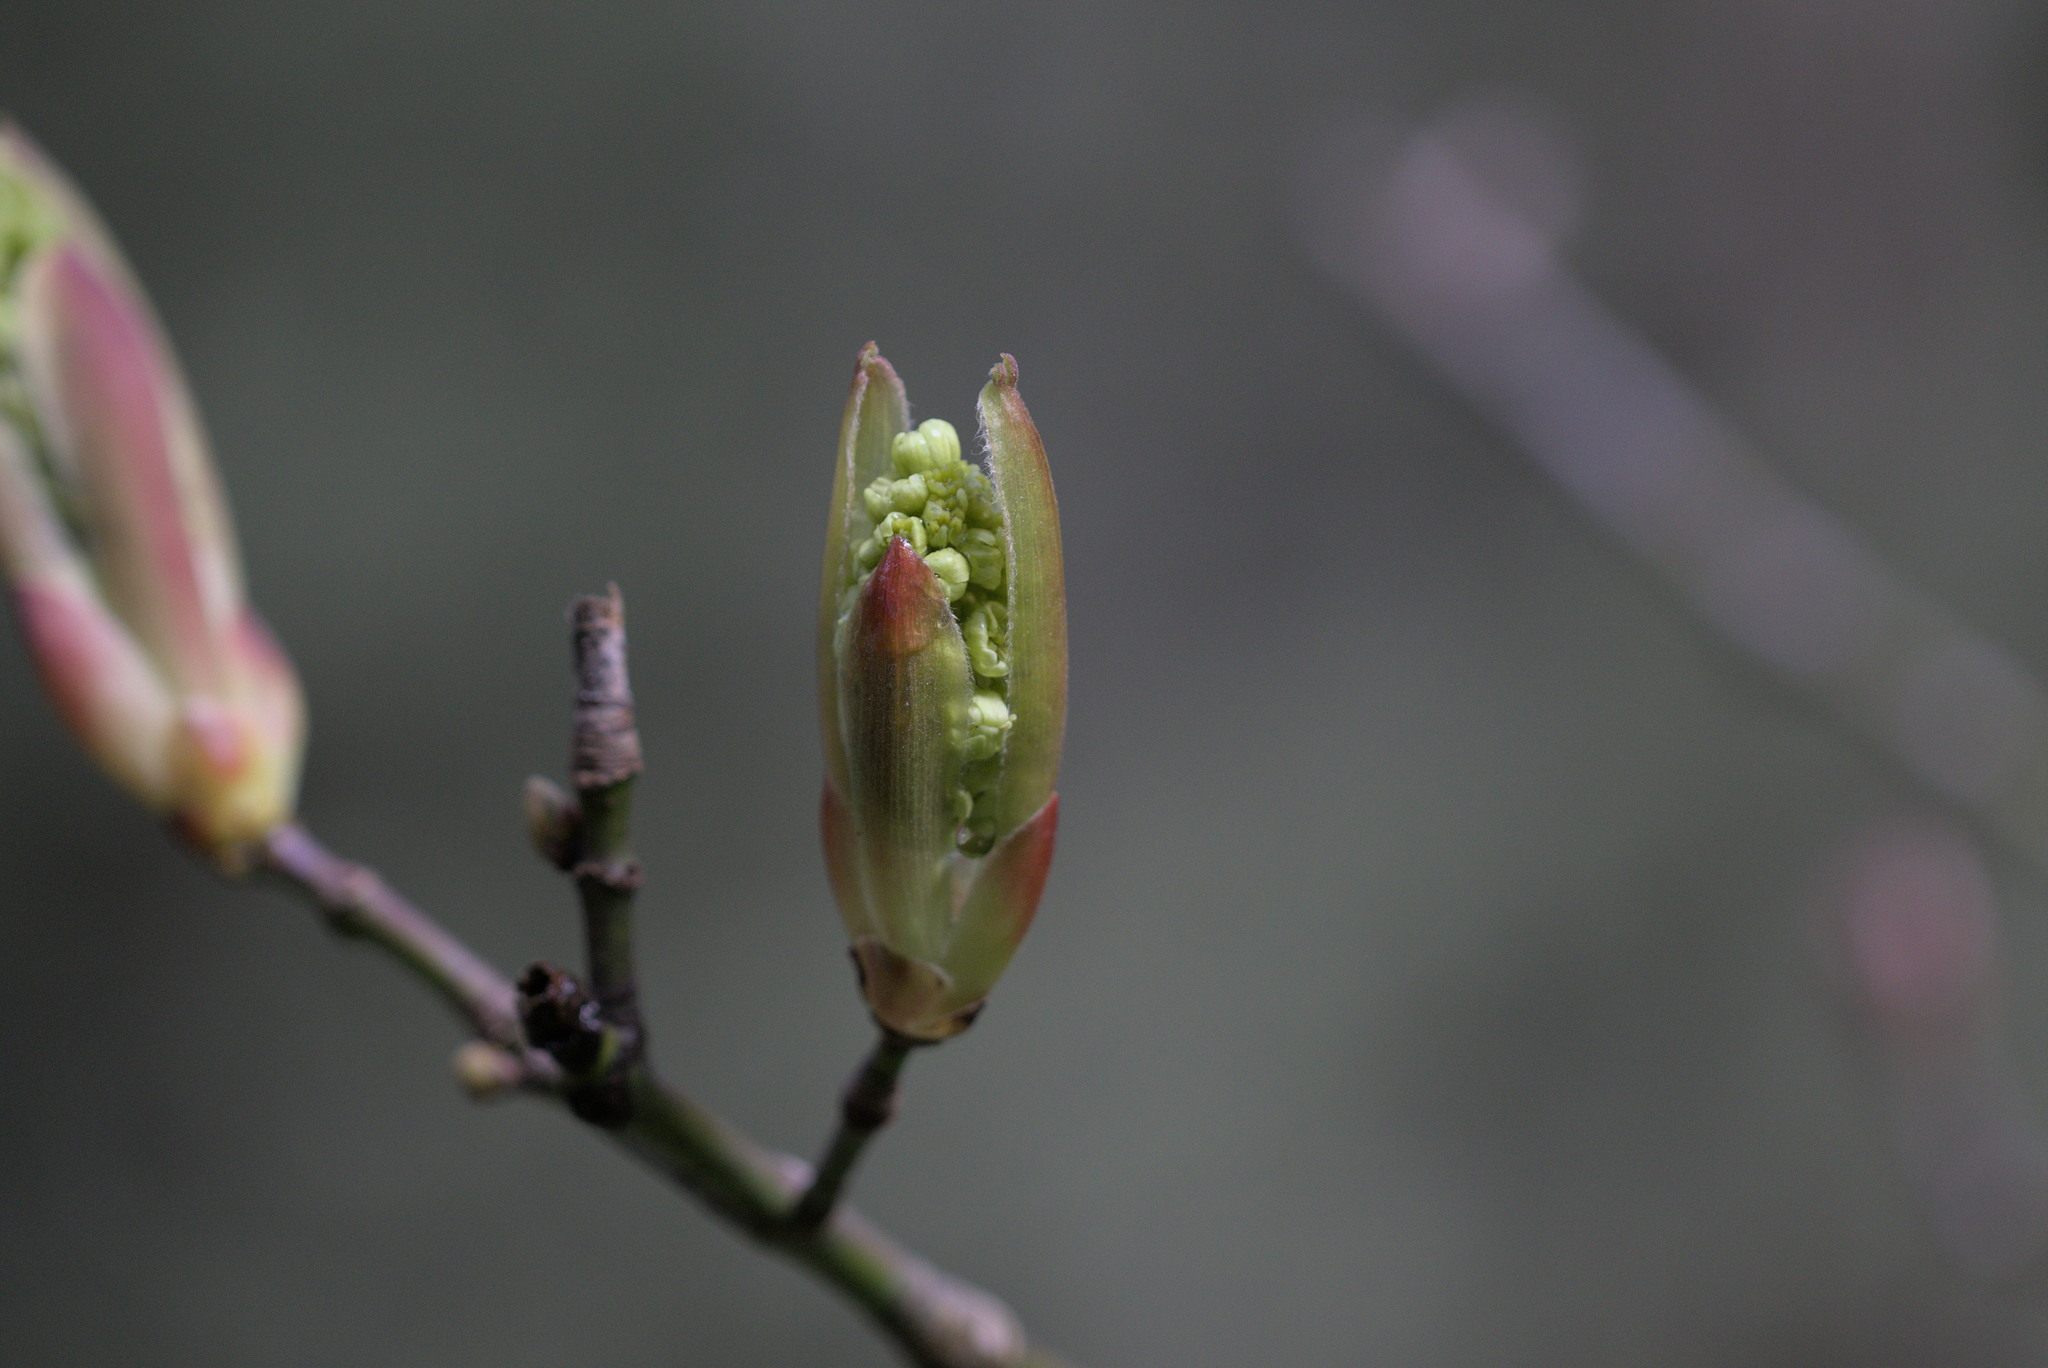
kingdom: Plantae
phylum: Tracheophyta
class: Magnoliopsida
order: Sapindales
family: Sapindaceae
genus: Acer
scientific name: Acer macrophyllum
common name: Oregon maple
